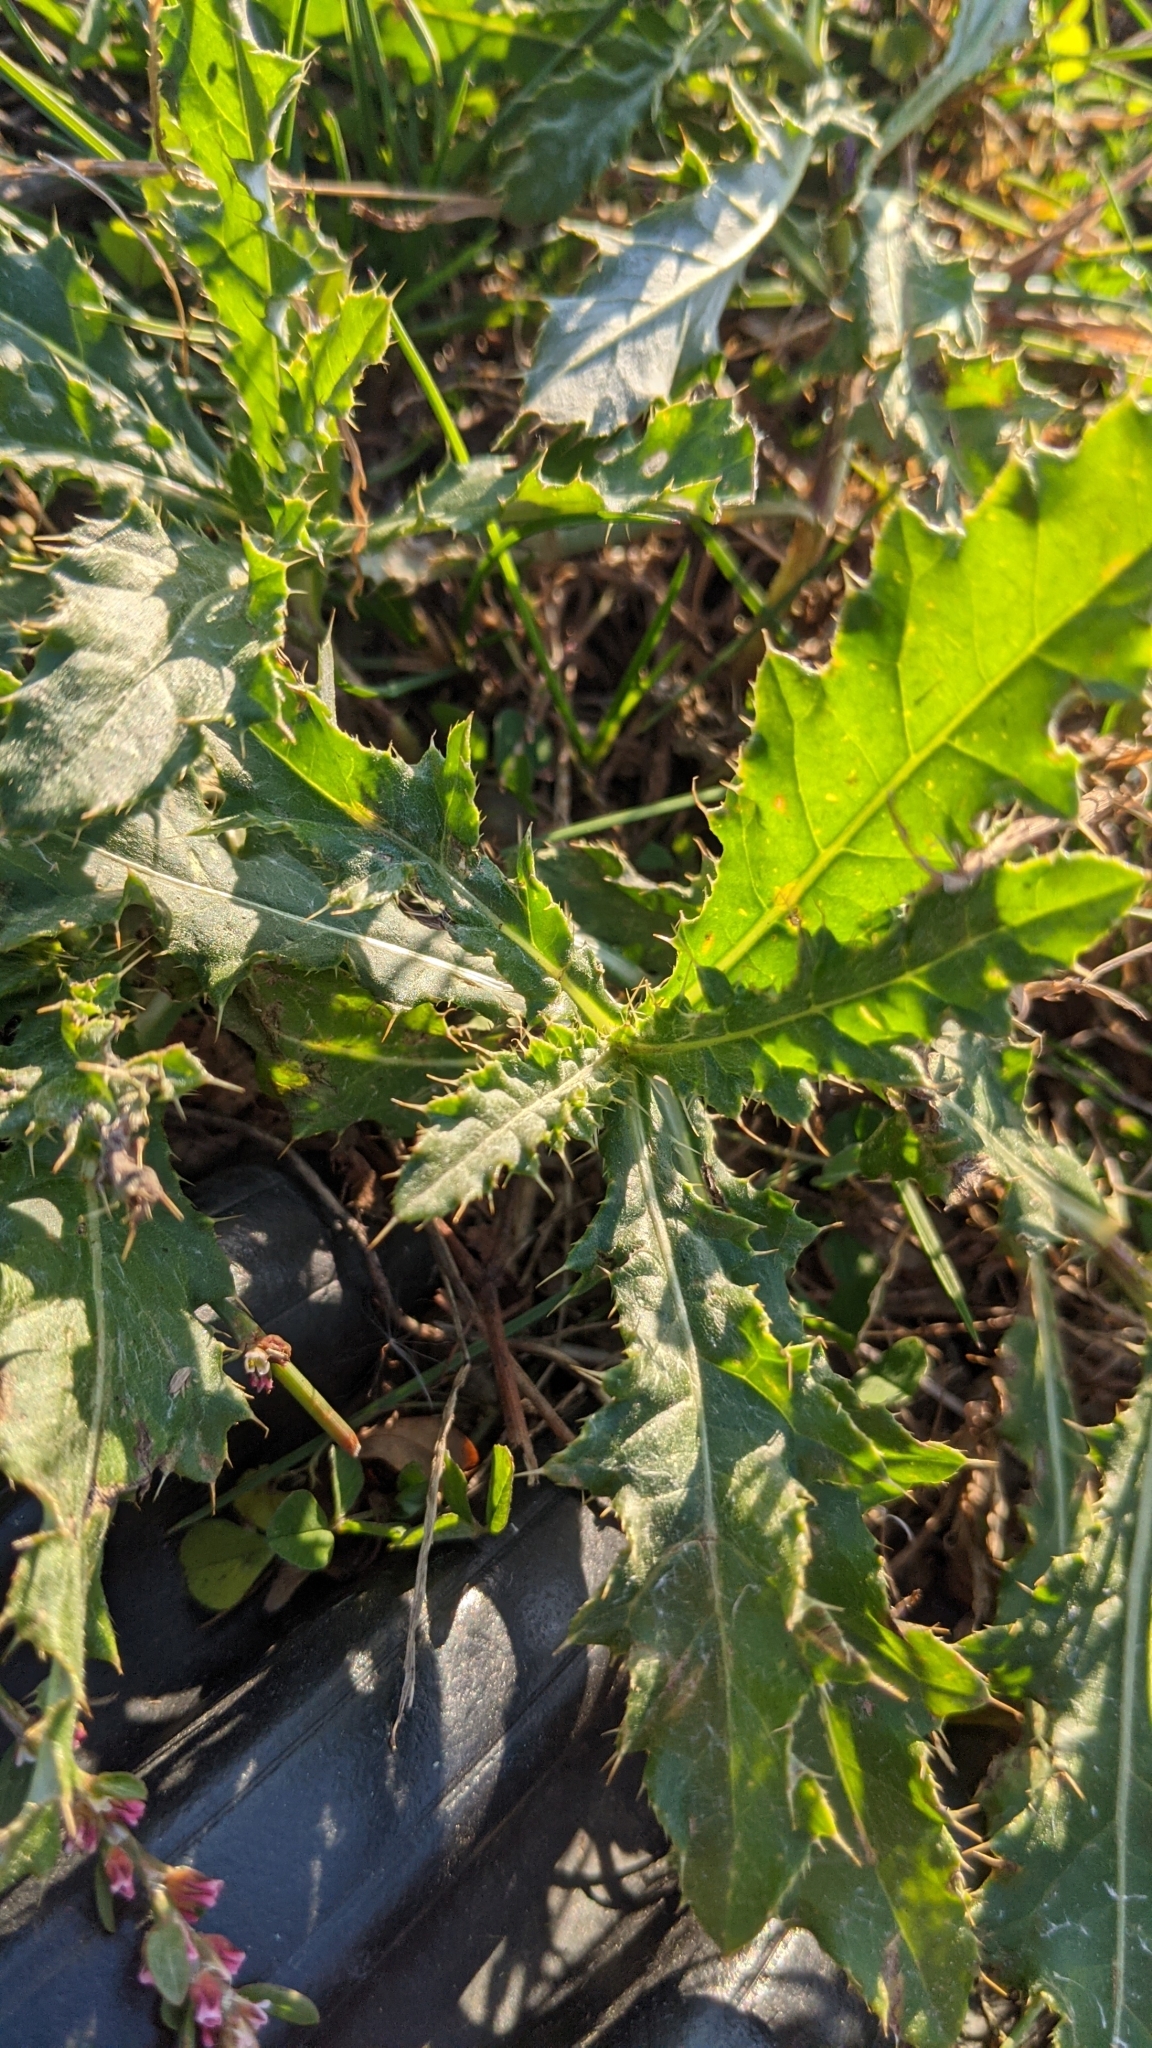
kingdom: Plantae
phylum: Tracheophyta
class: Magnoliopsida
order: Asterales
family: Asteraceae
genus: Cirsium
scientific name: Cirsium arvense
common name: Creeping thistle
